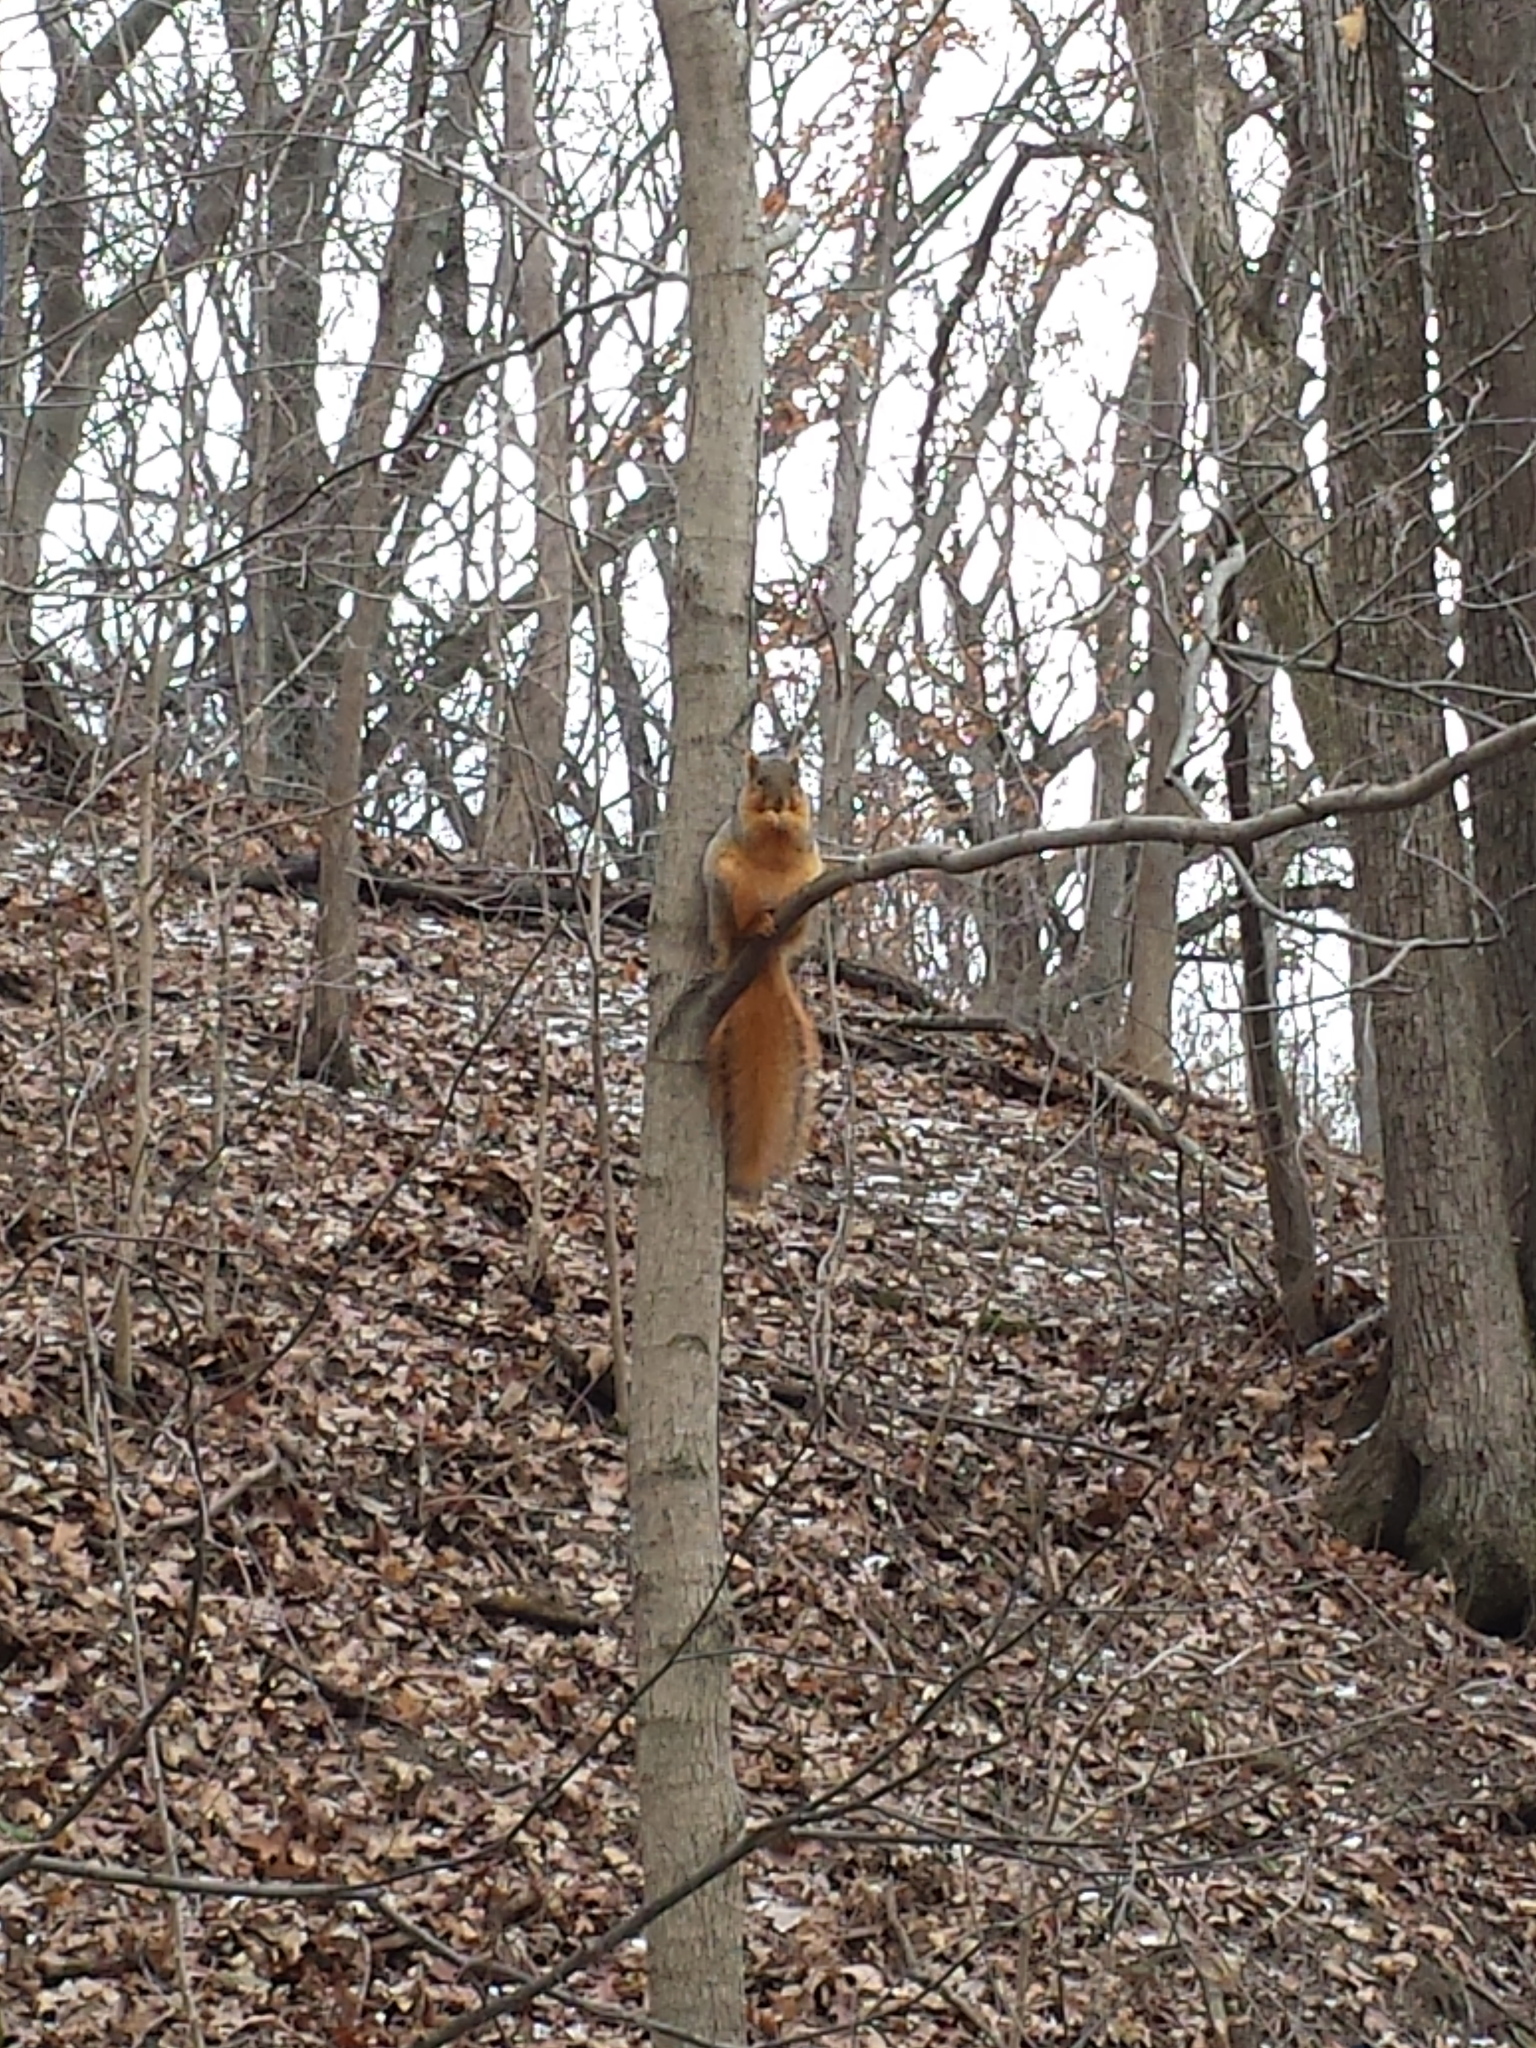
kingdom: Animalia
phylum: Chordata
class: Mammalia
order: Rodentia
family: Sciuridae
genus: Sciurus
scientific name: Sciurus niger
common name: Fox squirrel
